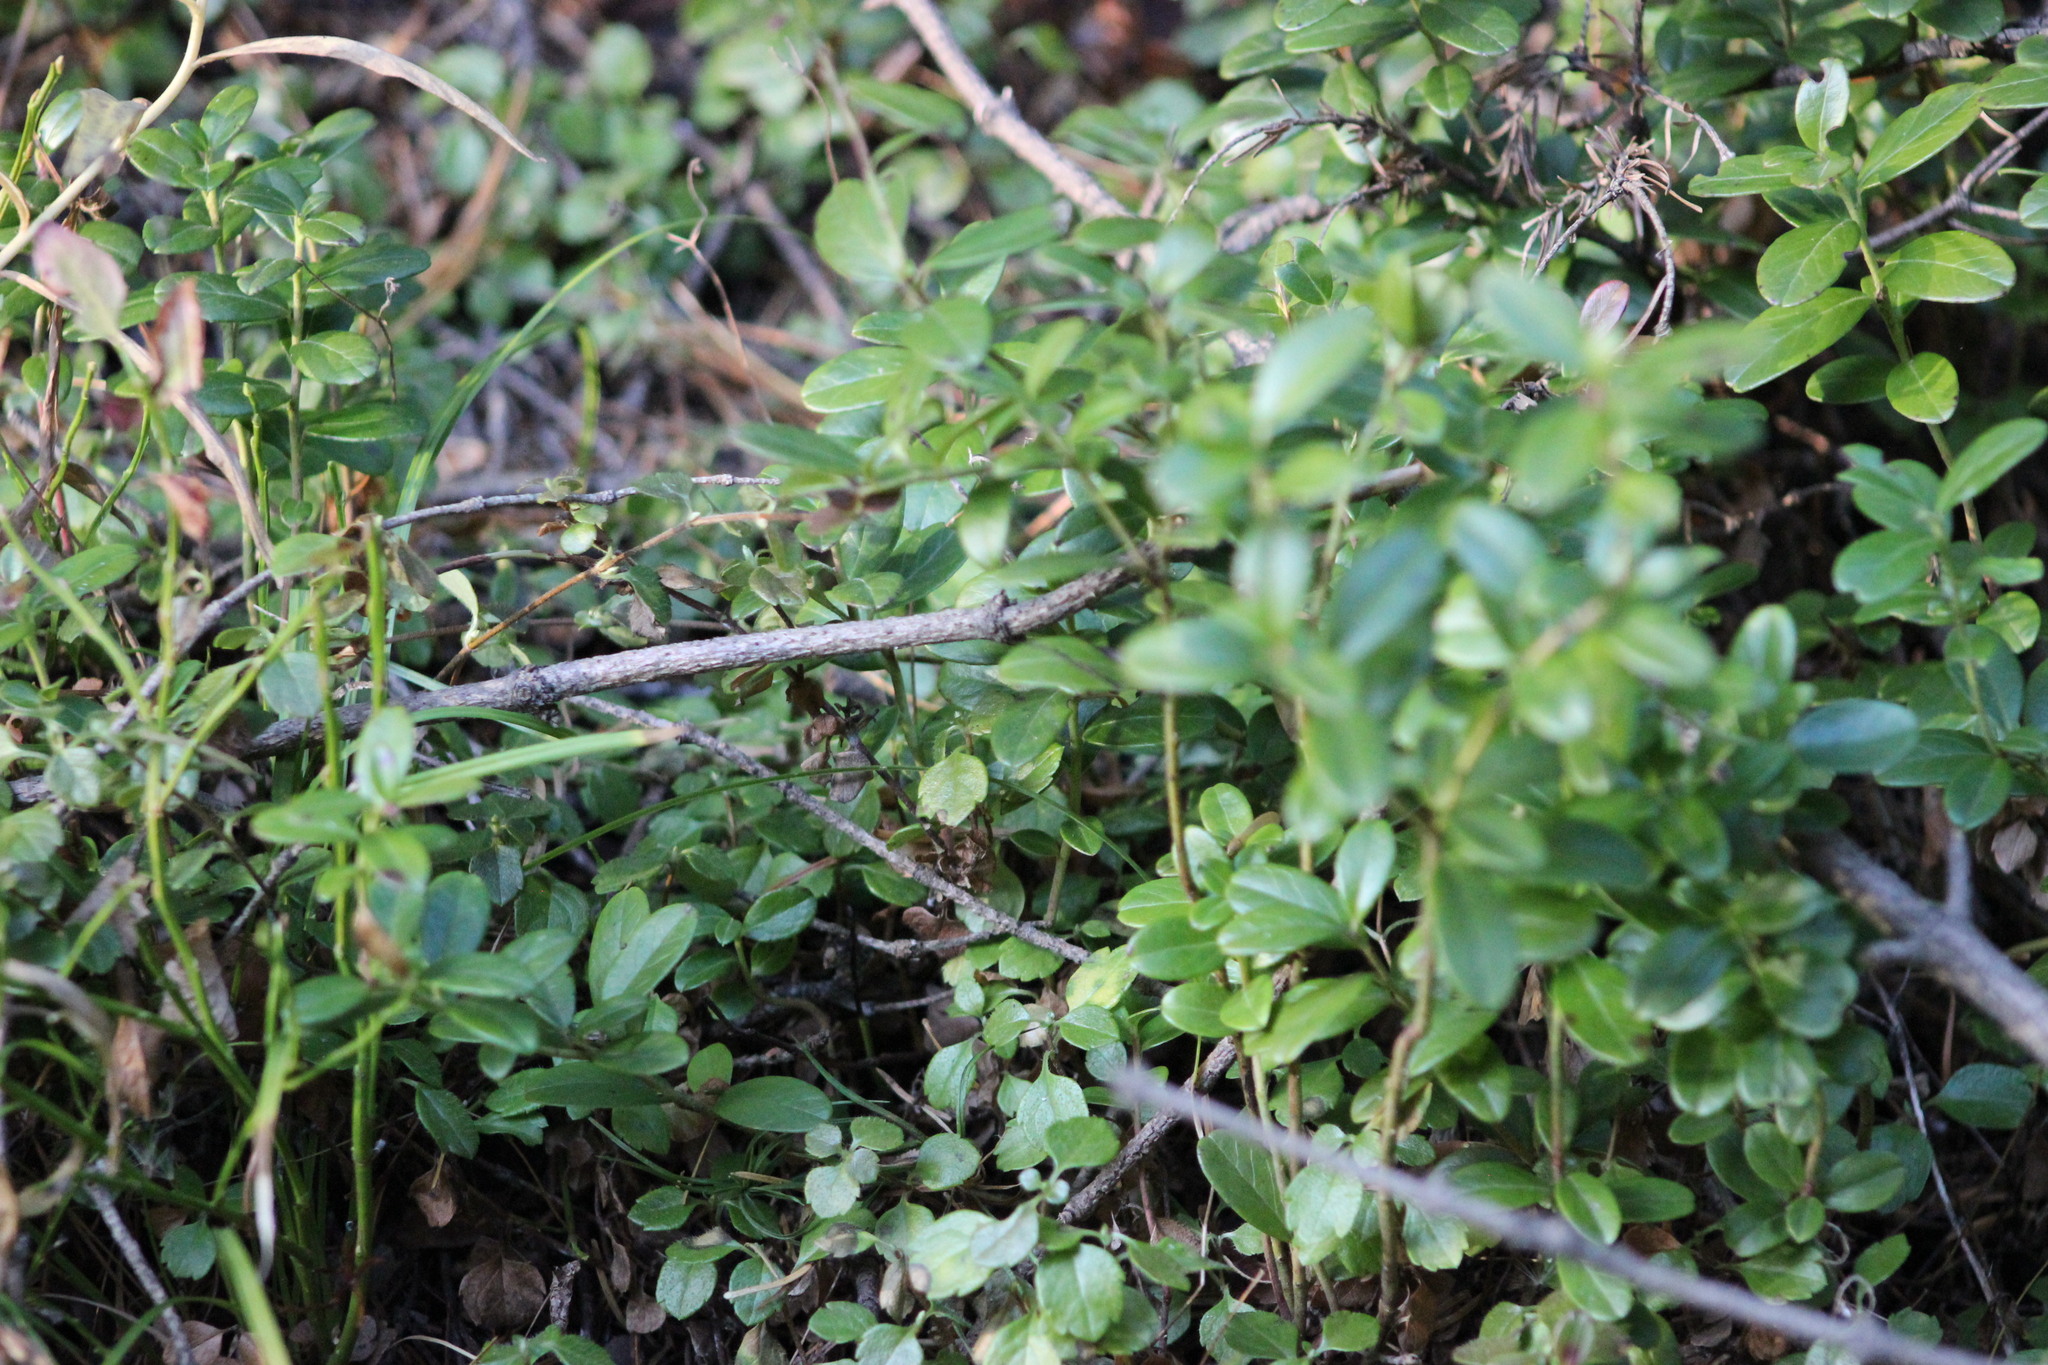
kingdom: Plantae
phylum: Tracheophyta
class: Magnoliopsida
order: Ericales
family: Ericaceae
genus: Vaccinium
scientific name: Vaccinium vitis-idaea
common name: Cowberry
